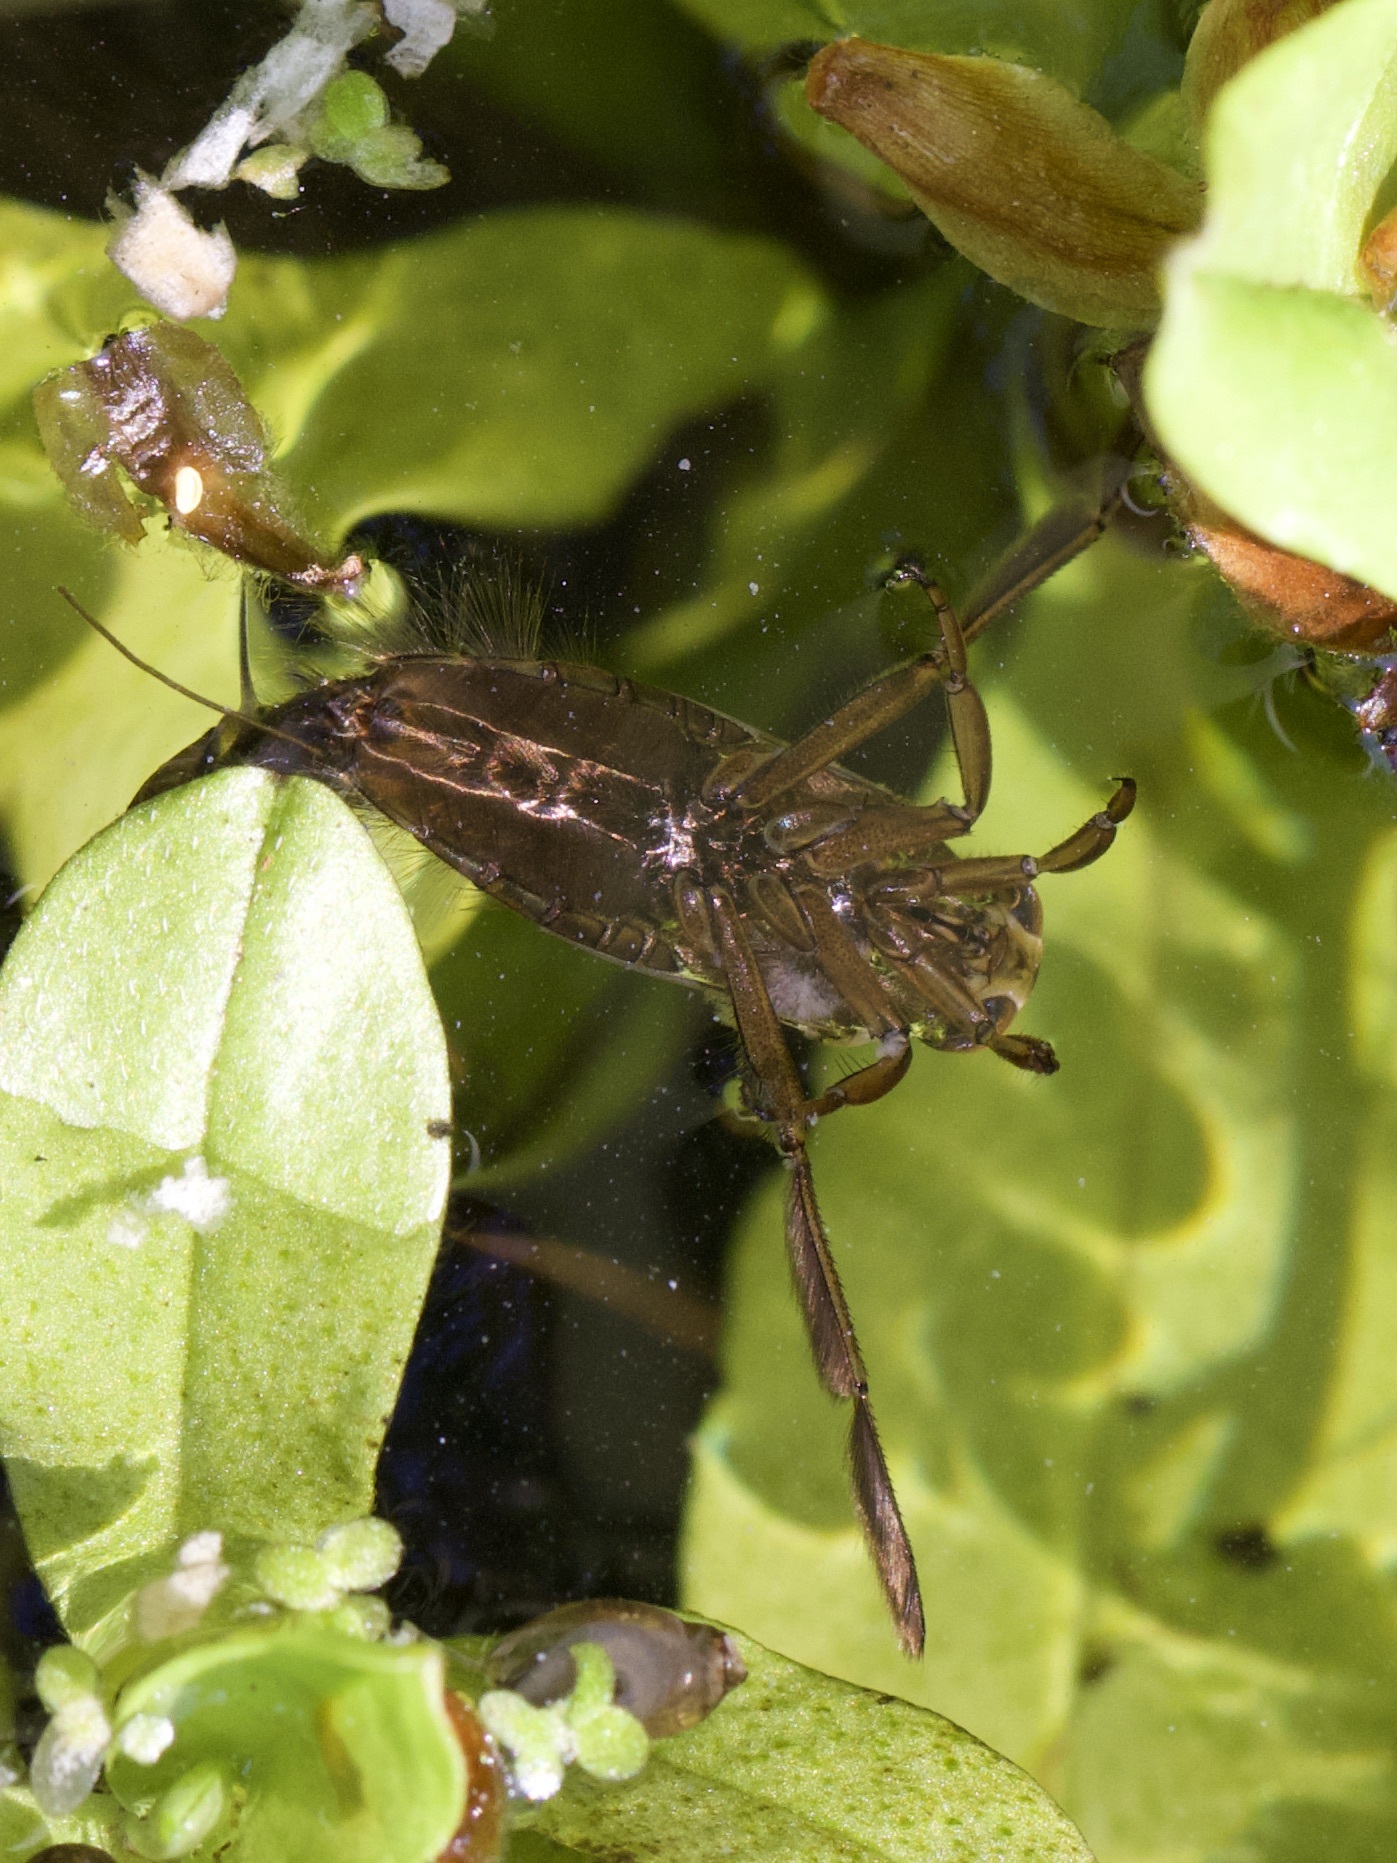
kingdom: Animalia
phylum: Arthropoda
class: Insecta
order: Hemiptera
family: Notonectidae
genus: Notonecta
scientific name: Notonecta
